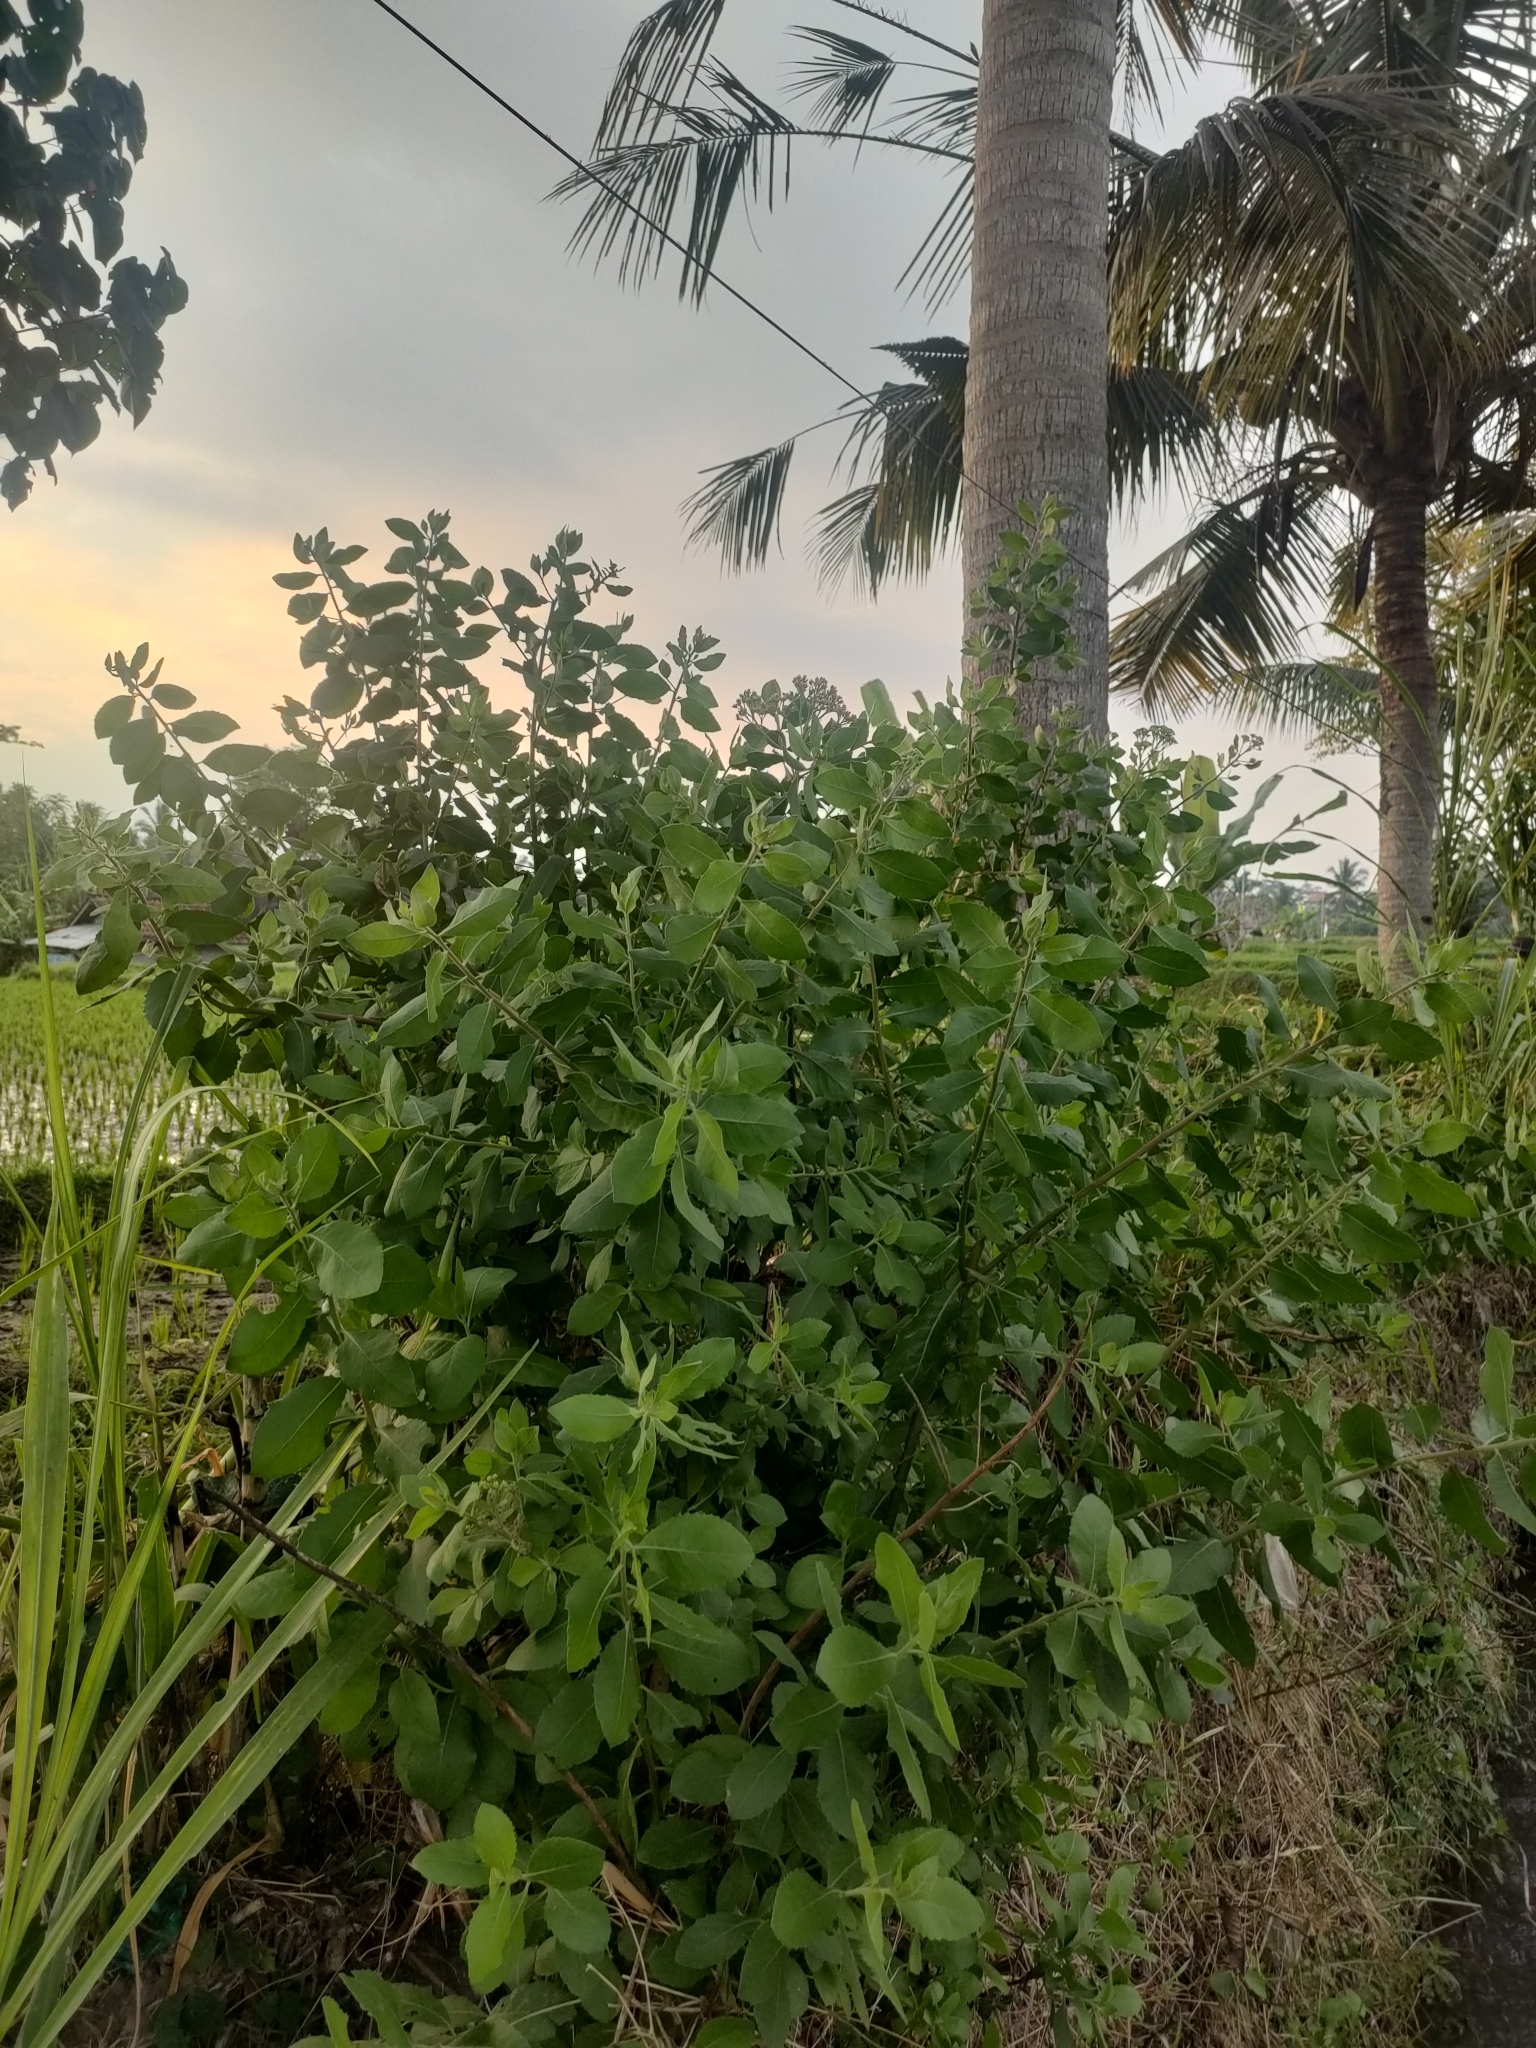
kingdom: Plantae
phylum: Tracheophyta
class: Magnoliopsida
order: Asterales
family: Asteraceae
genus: Pluchea
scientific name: Pluchea indica
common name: Indian fleabane
